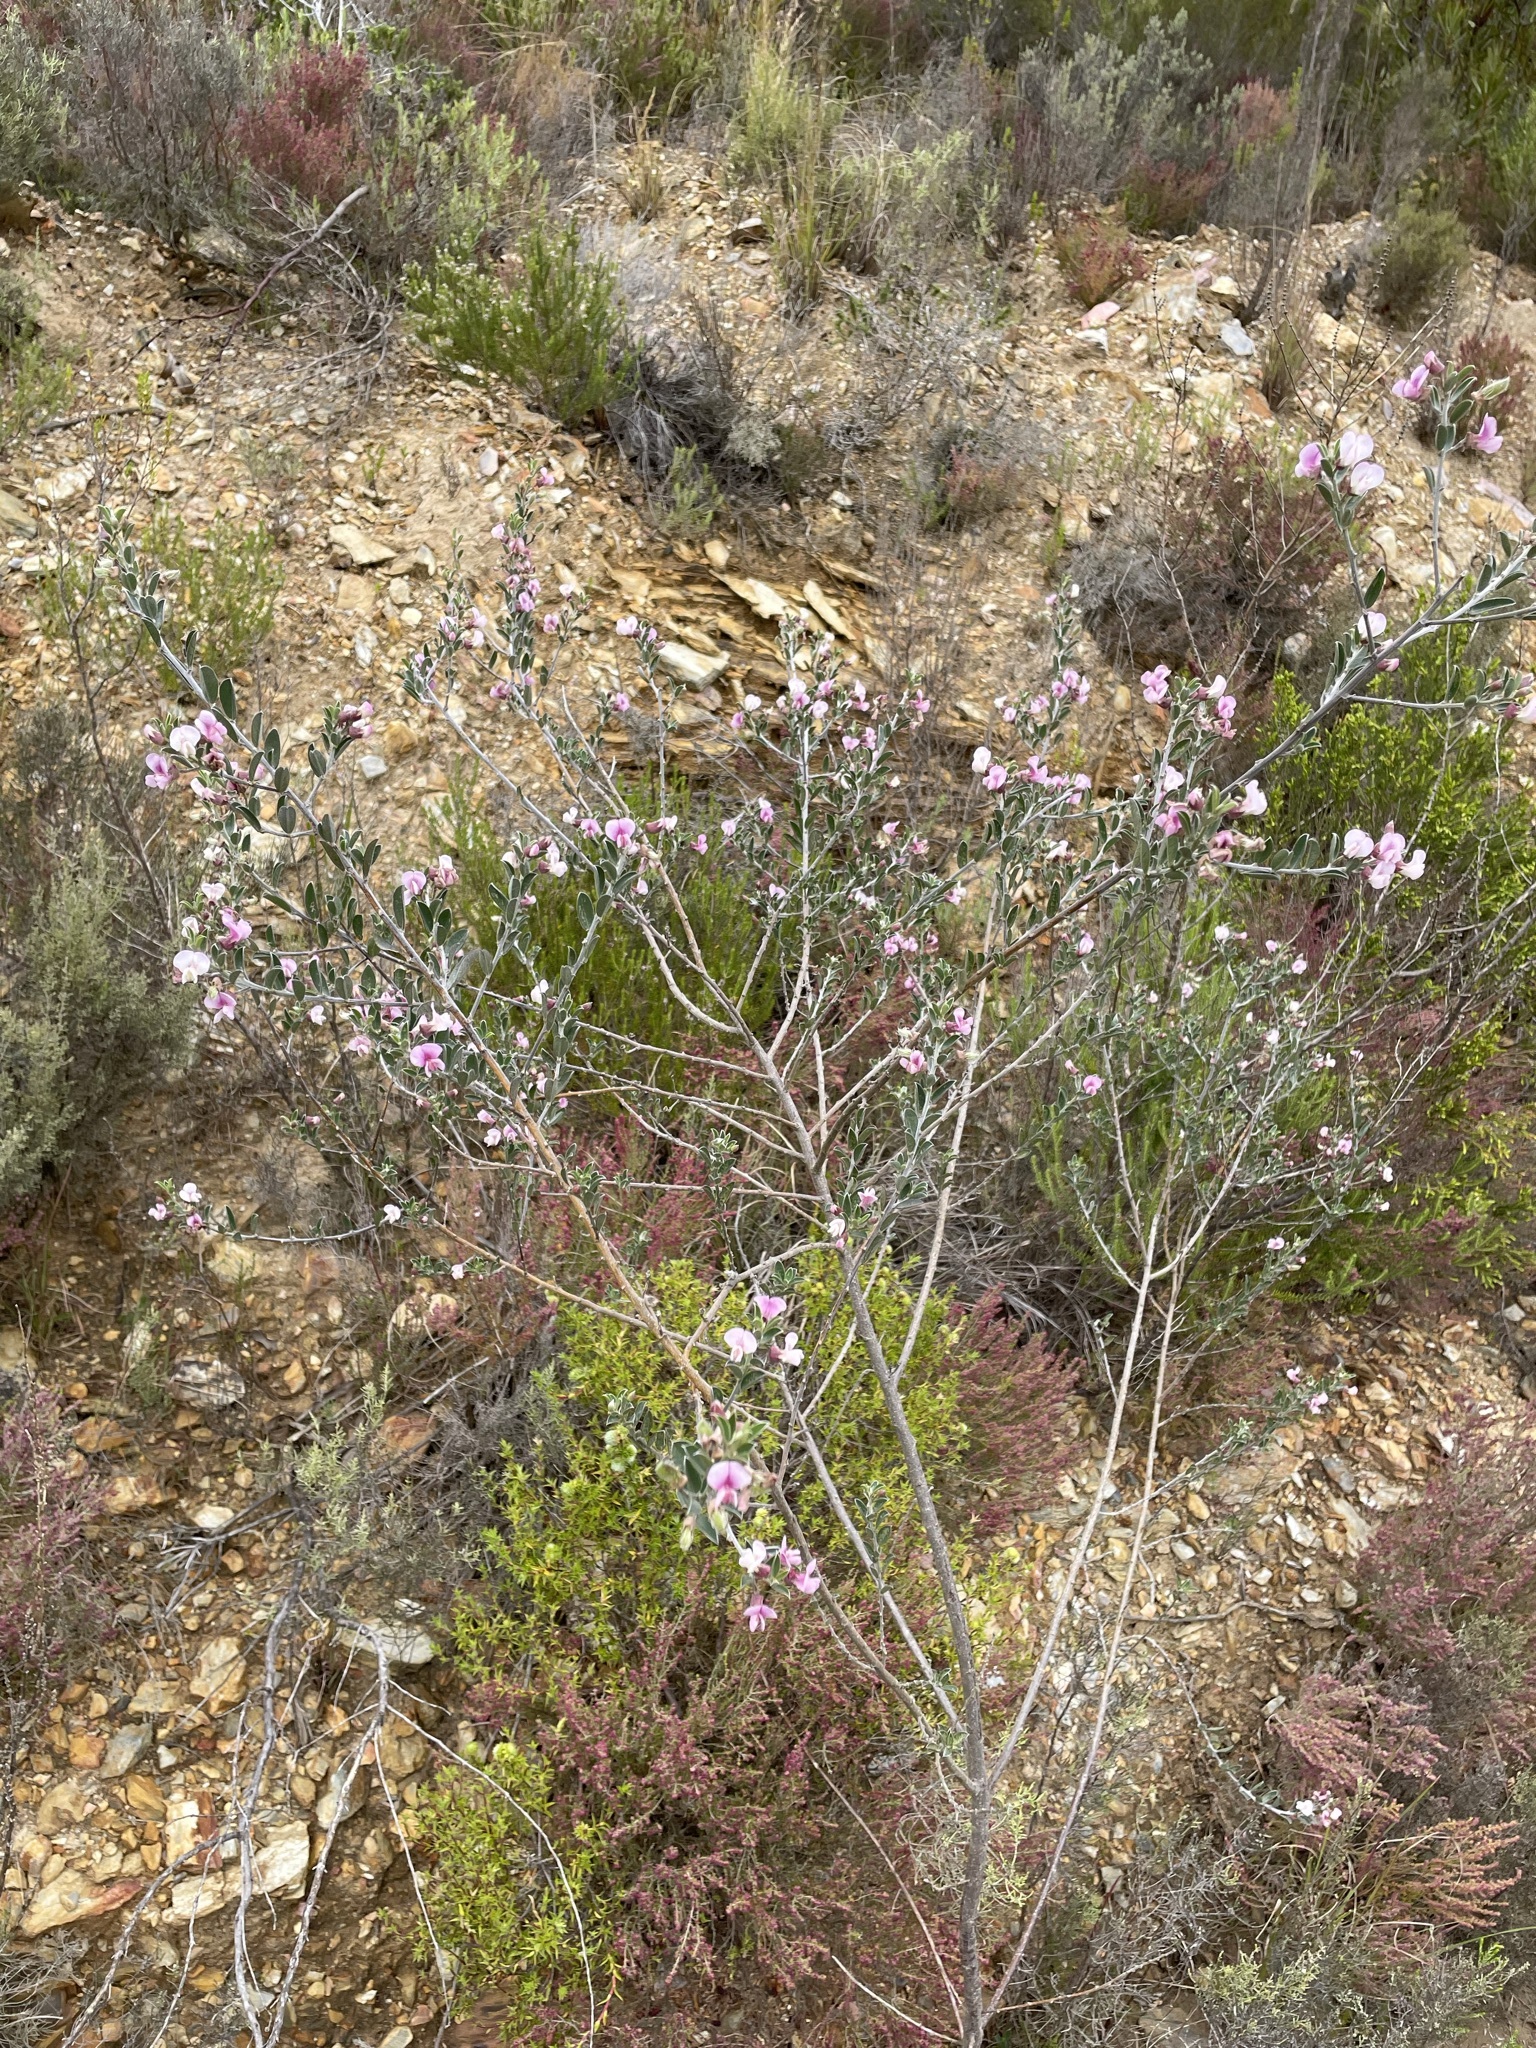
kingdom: Plantae
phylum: Tracheophyta
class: Magnoliopsida
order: Fabales
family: Fabaceae
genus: Podalyria
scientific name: Podalyria myrtillifolia
